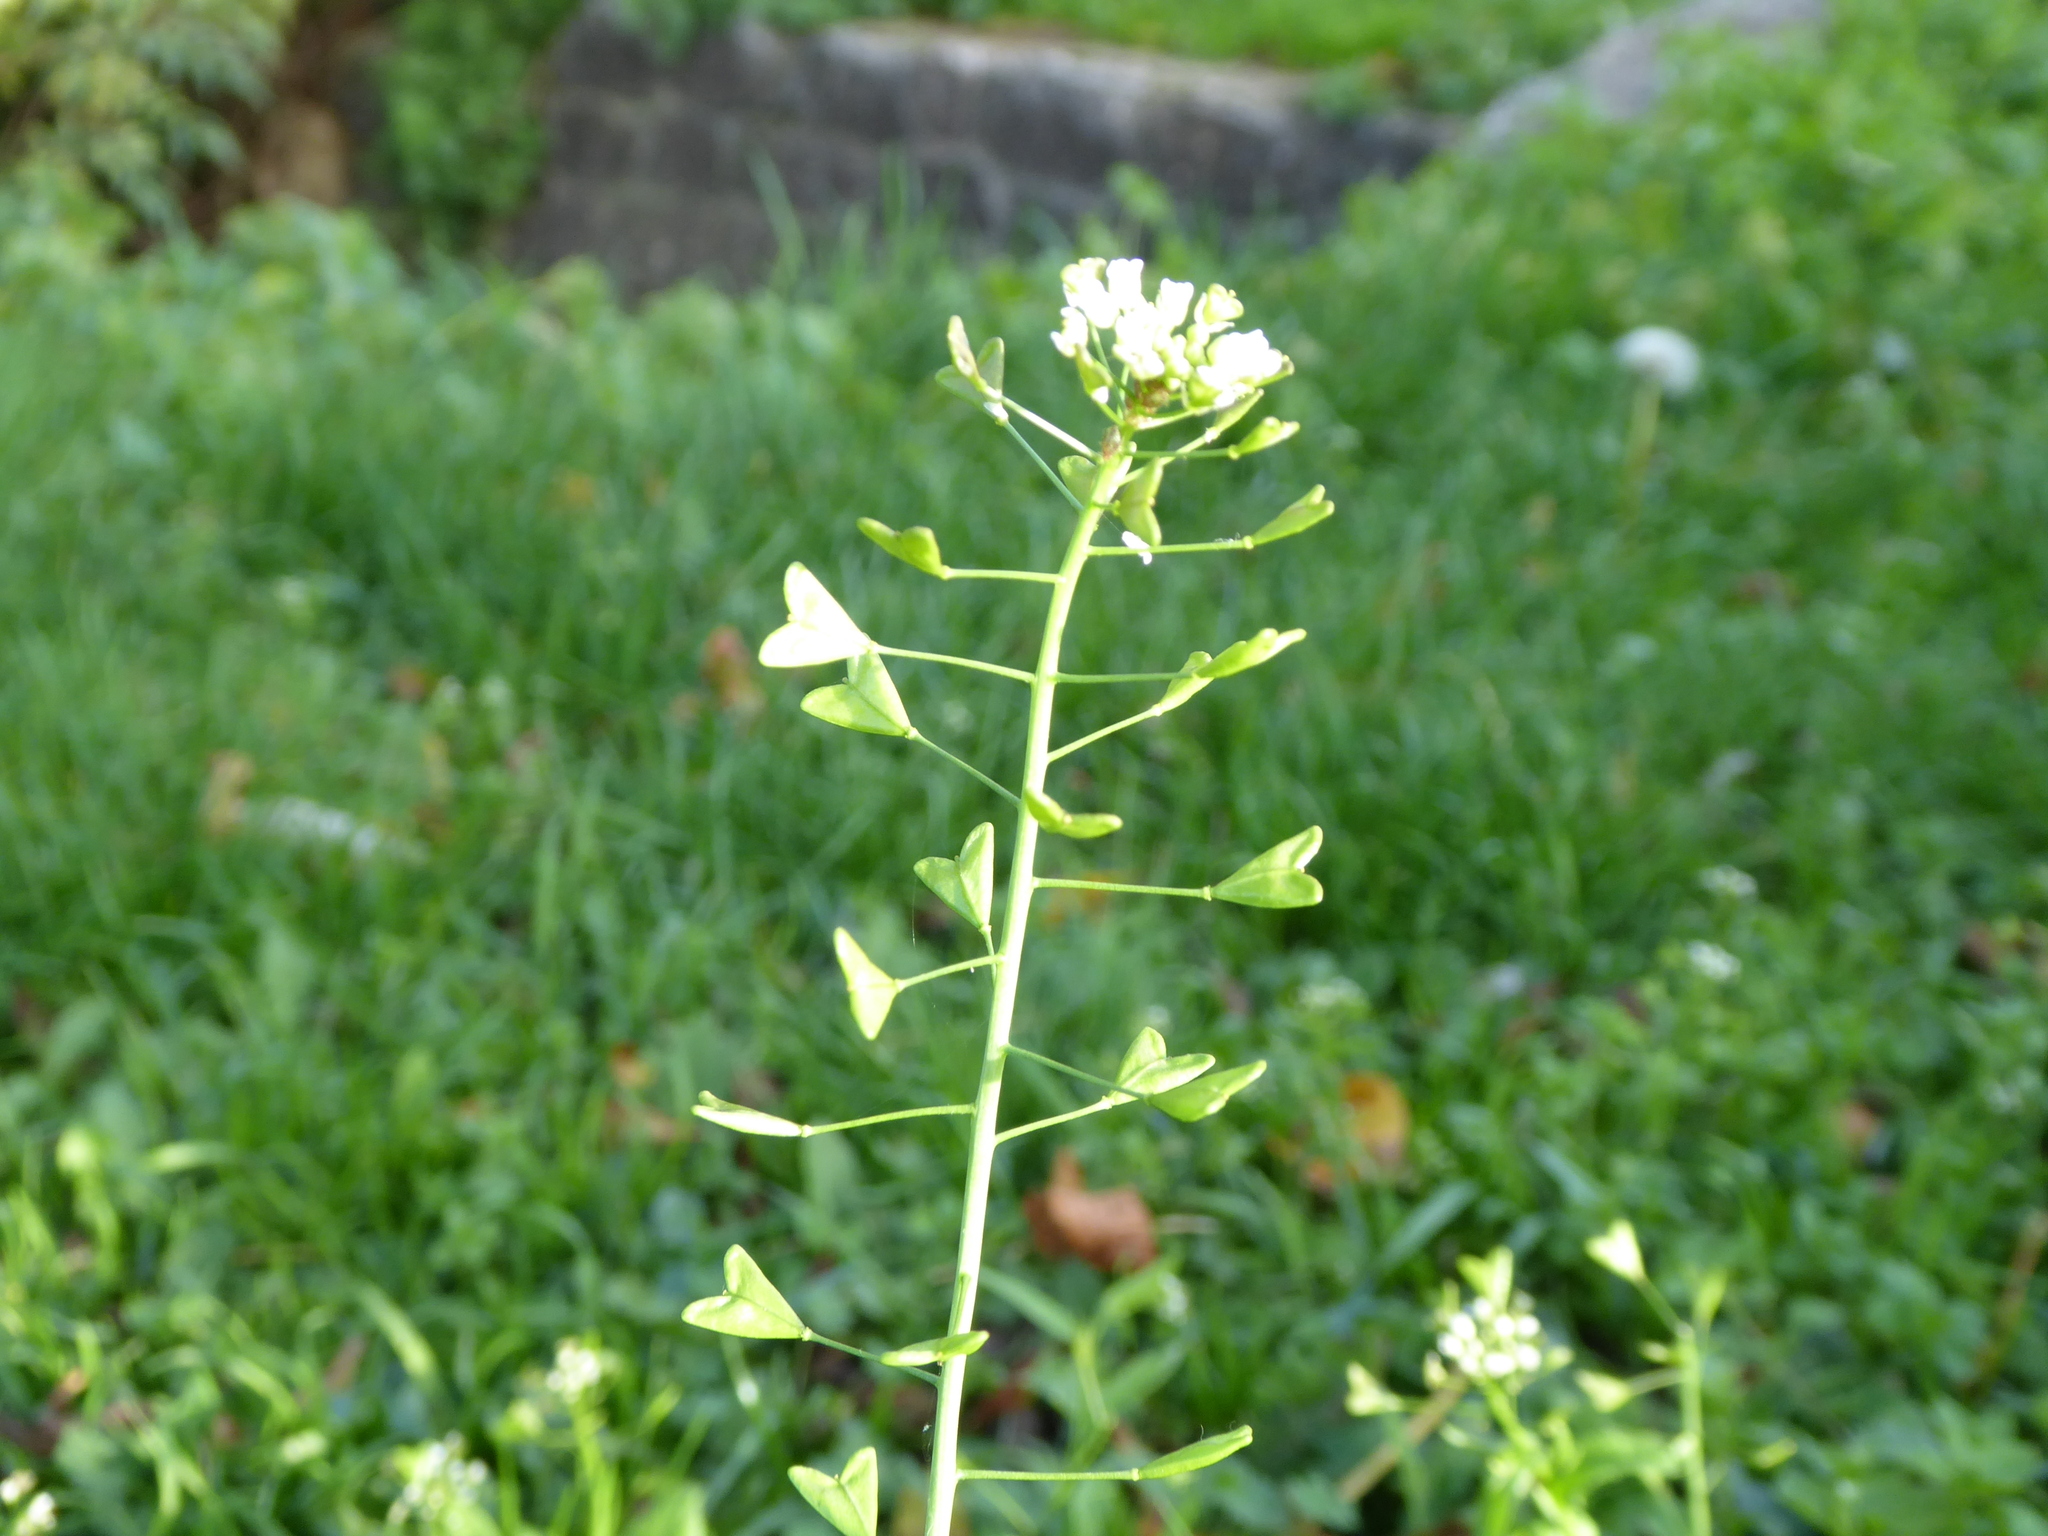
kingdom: Plantae
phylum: Tracheophyta
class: Magnoliopsida
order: Brassicales
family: Brassicaceae
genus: Capsella
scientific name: Capsella bursa-pastoris
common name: Shepherd's purse
